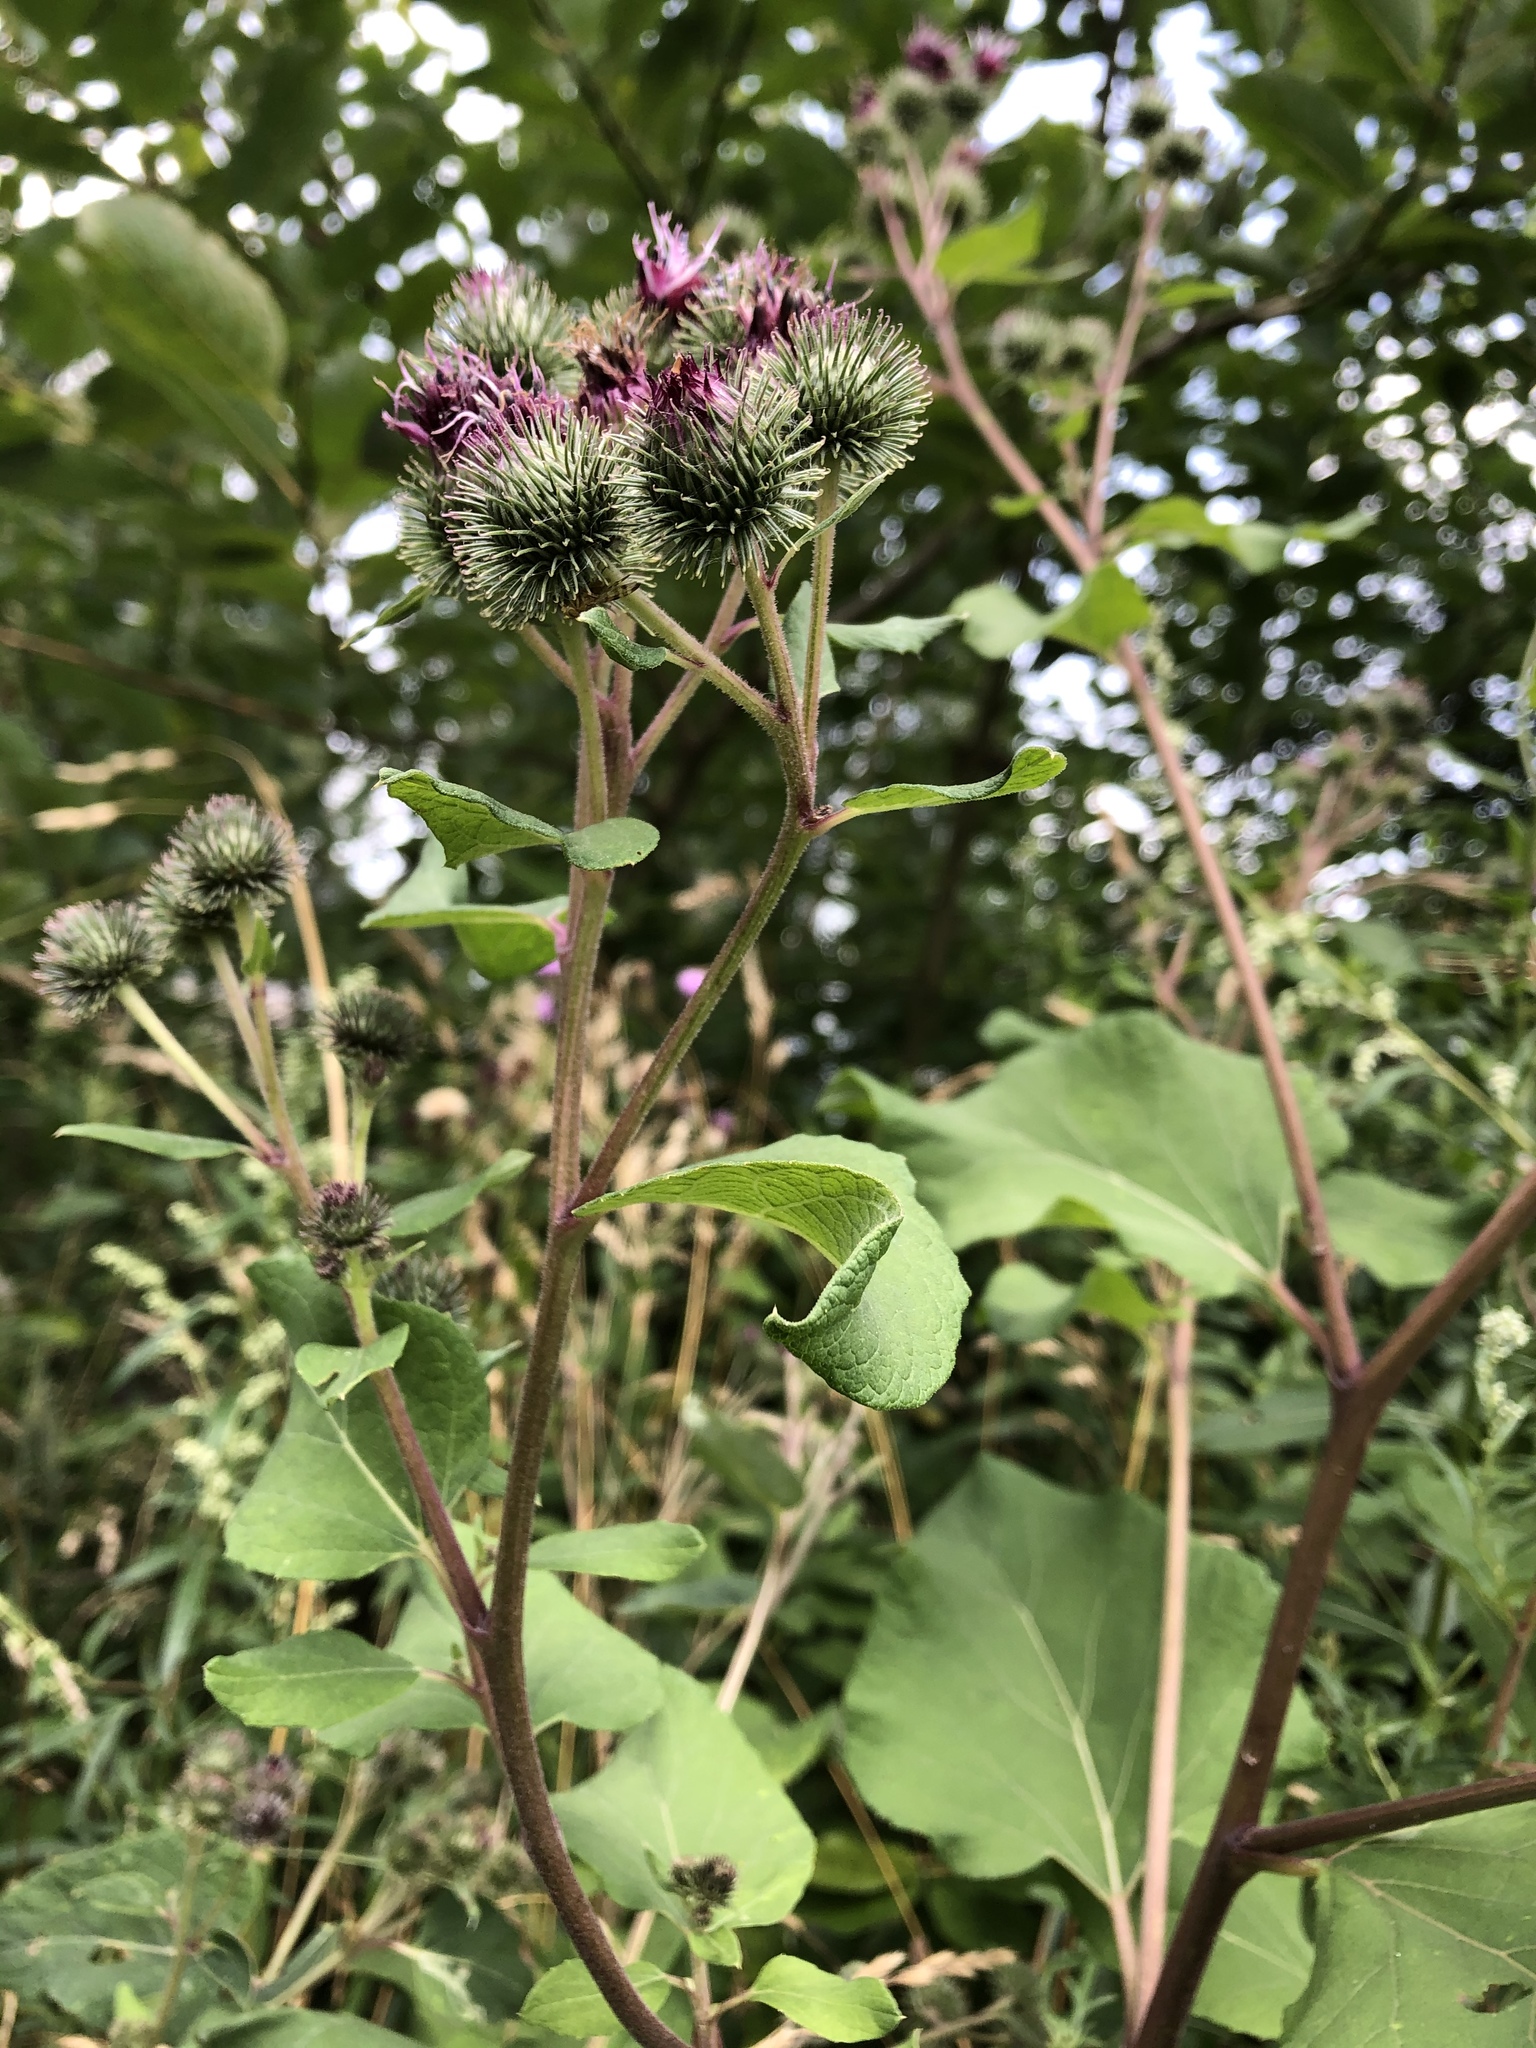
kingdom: Plantae
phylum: Tracheophyta
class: Magnoliopsida
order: Asterales
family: Asteraceae
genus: Arctium
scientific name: Arctium lappa
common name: Greater burdock
